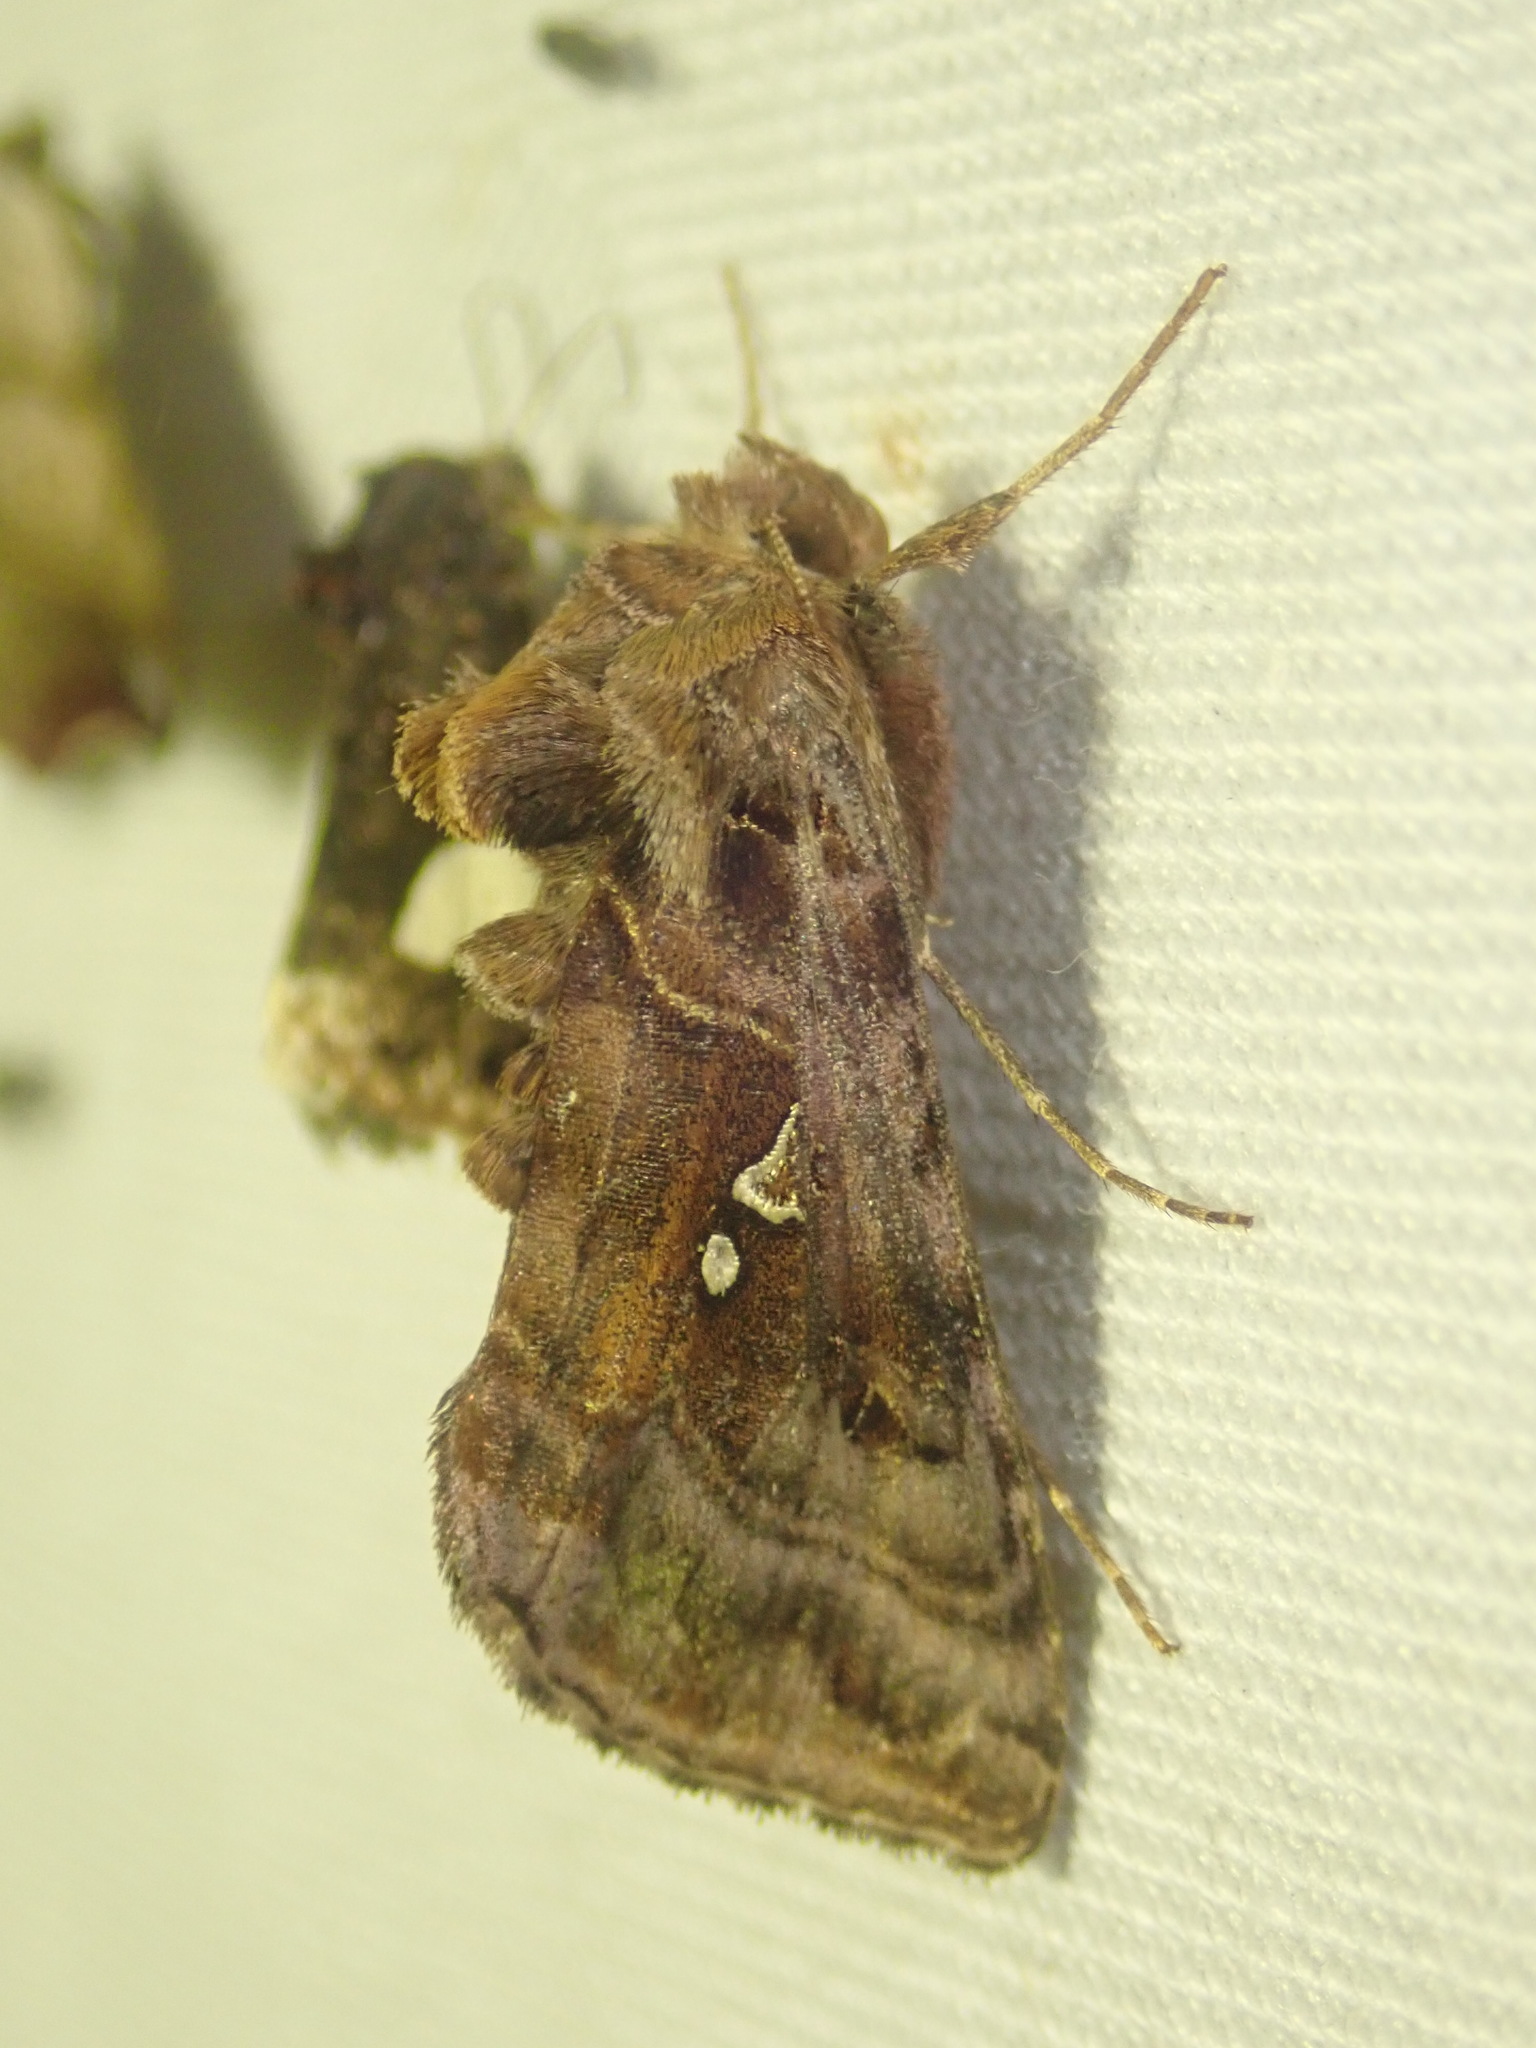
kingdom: Animalia
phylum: Arthropoda
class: Insecta
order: Lepidoptera
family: Noctuidae
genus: Autographa
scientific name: Autographa pulchrina
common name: Beautiful golden y
